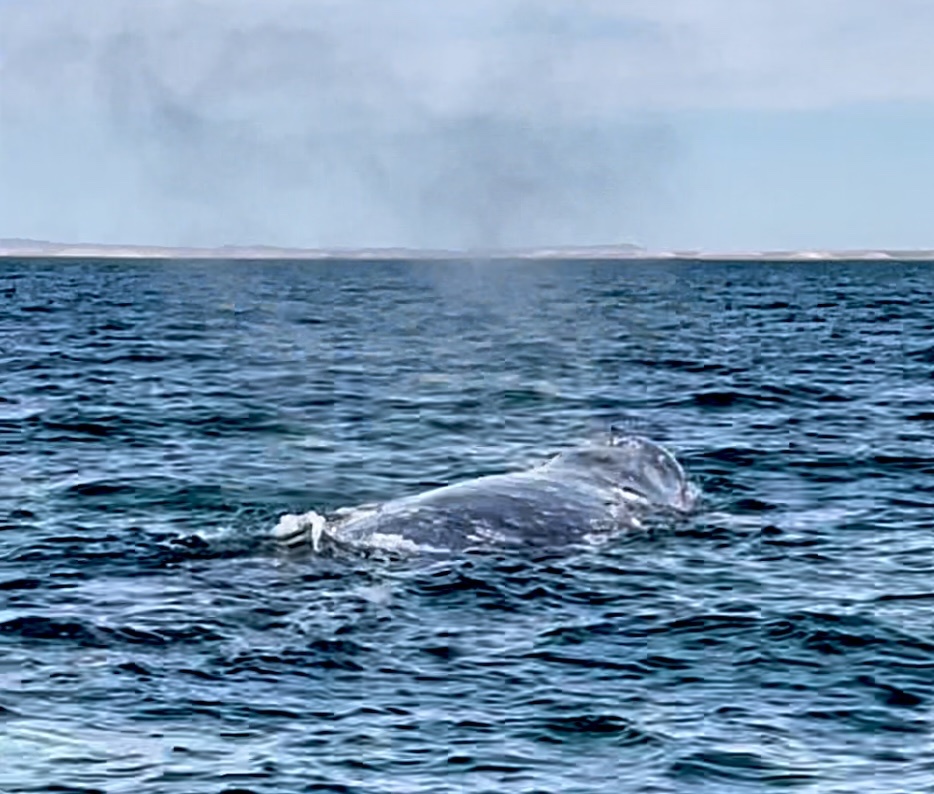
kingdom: Animalia
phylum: Chordata
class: Mammalia
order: Cetacea
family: Eschrichtiidae
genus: Eschrichtius
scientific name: Eschrichtius robustus
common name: Gray whale
